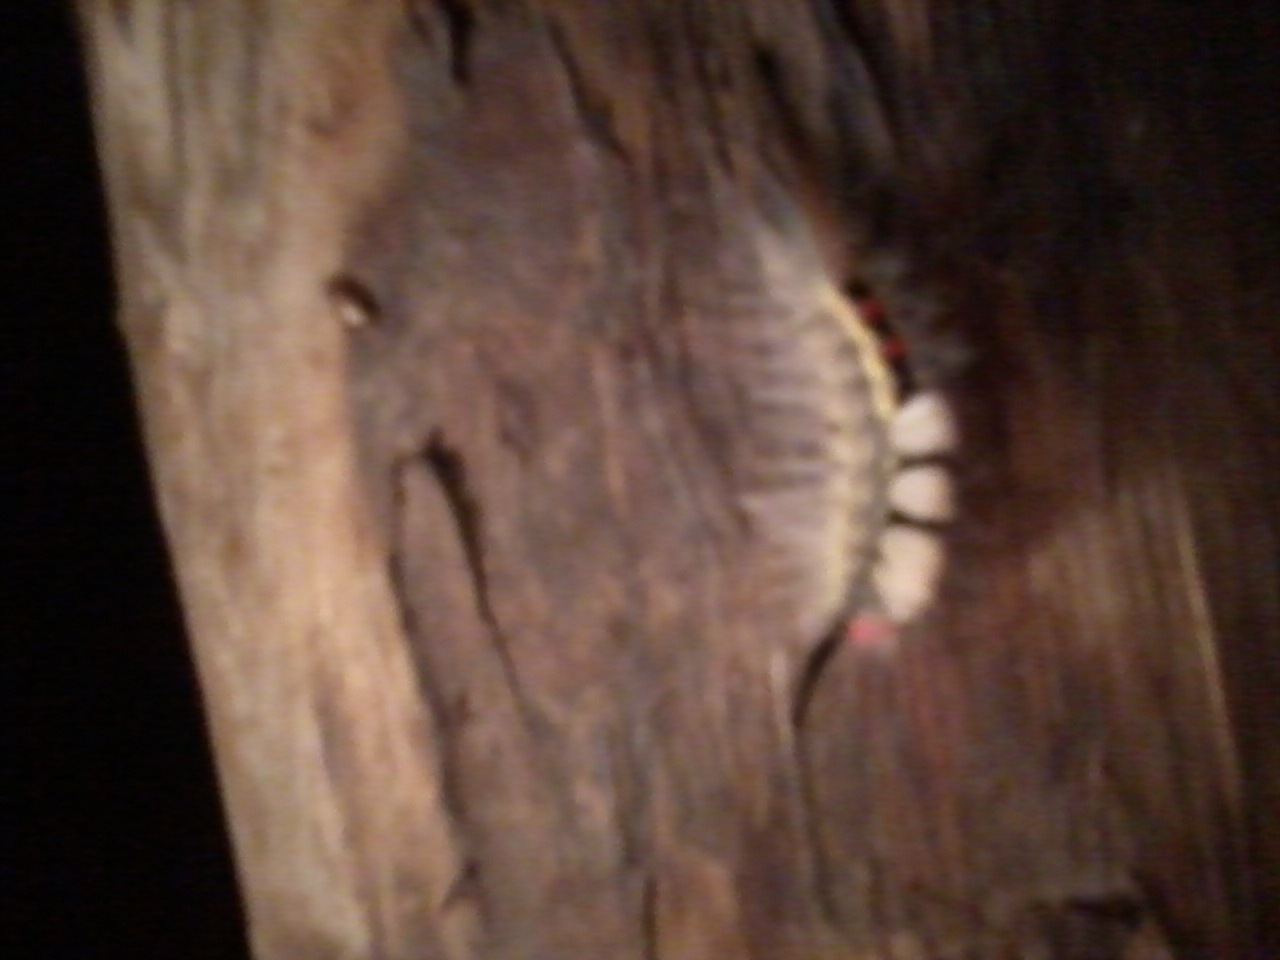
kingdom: Animalia
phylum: Arthropoda
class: Insecta
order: Lepidoptera
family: Erebidae
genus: Orgyia
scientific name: Orgyia leucostigma
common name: White-marked tussock moth
